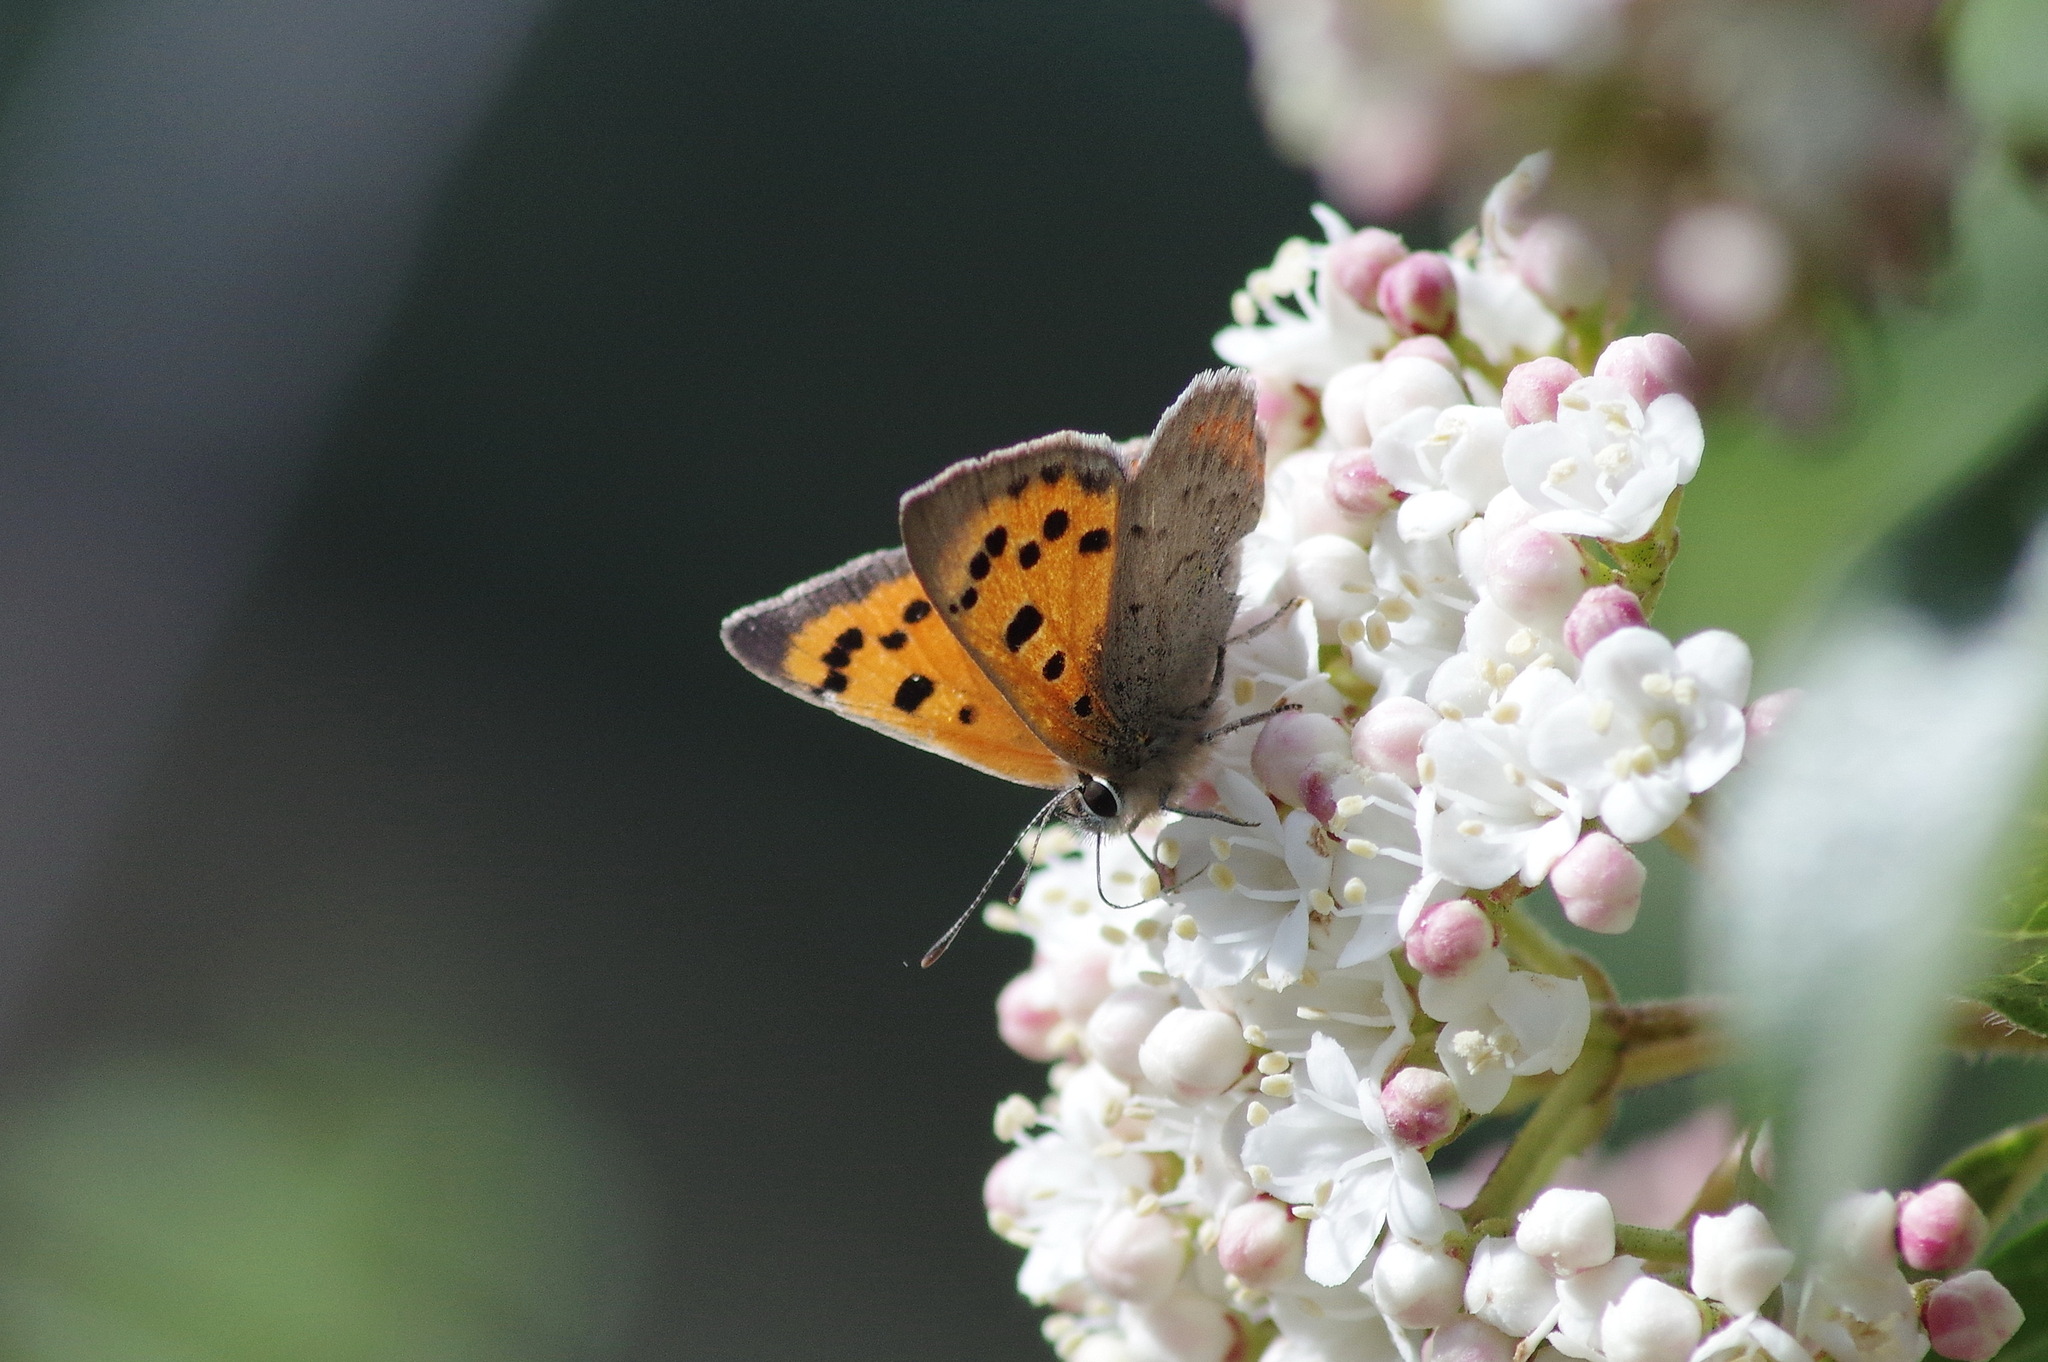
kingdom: Animalia
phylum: Arthropoda
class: Insecta
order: Lepidoptera
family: Lycaenidae
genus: Lycaena
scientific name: Lycaena phlaeas
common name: Small copper
